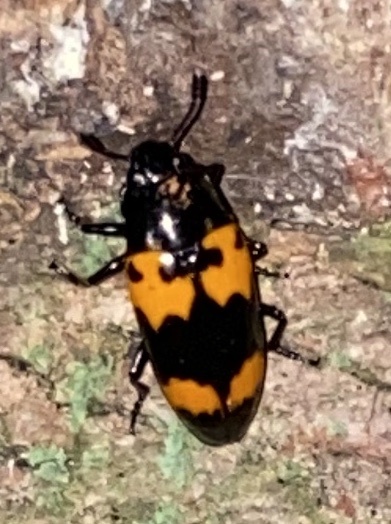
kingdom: Animalia
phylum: Arthropoda
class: Insecta
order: Coleoptera
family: Erotylidae
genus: Megalodacne
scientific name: Megalodacne heros
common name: Pleasing fungus beetle
